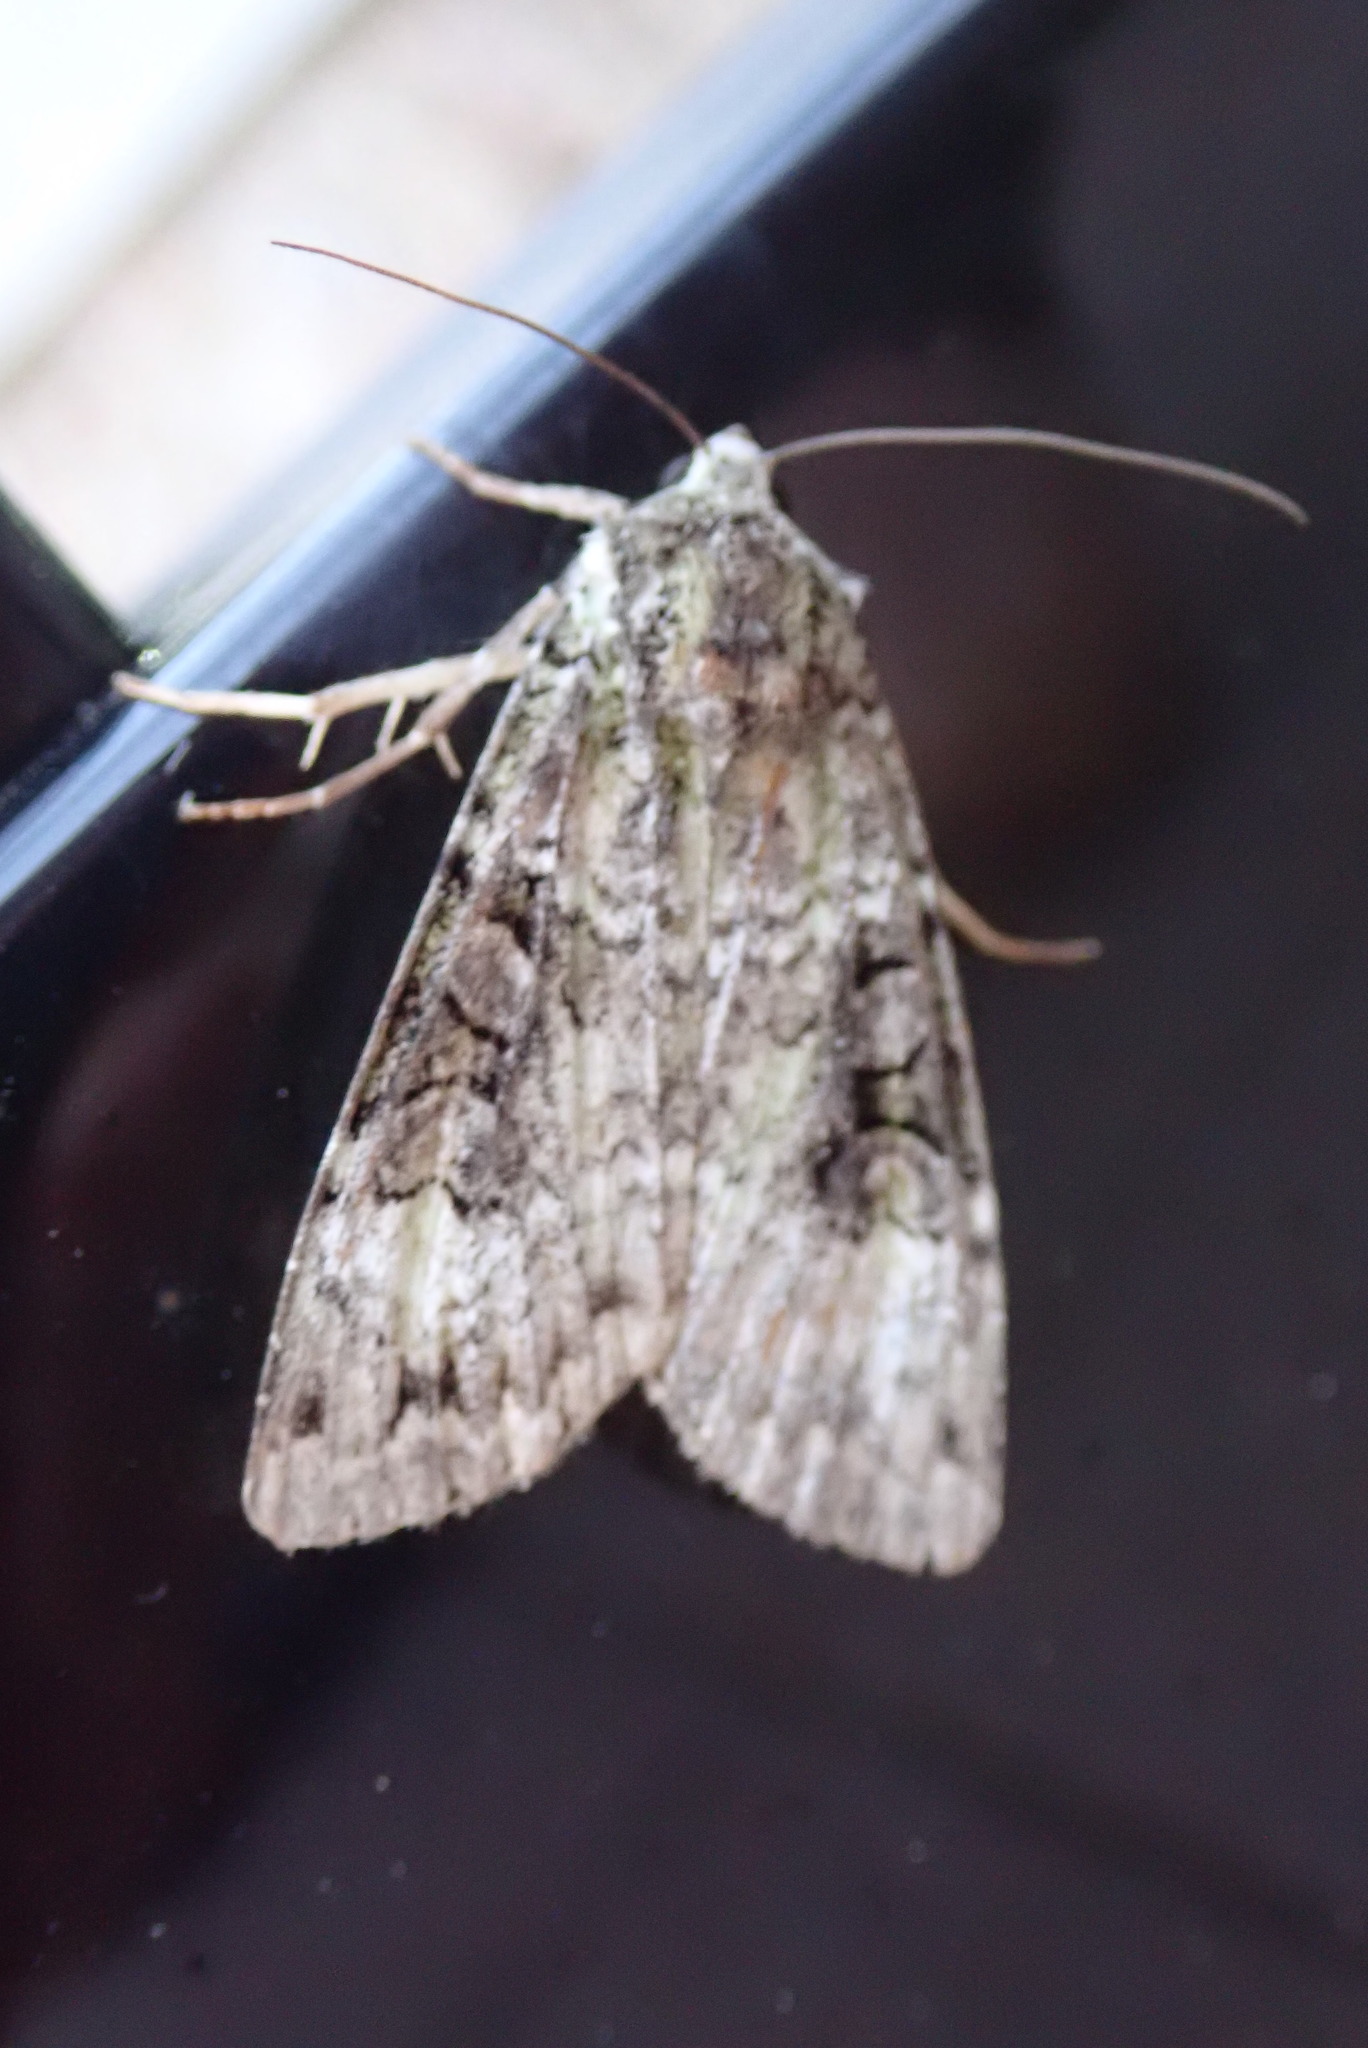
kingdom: Animalia
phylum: Arthropoda
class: Insecta
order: Lepidoptera
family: Noctuidae
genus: Anaplectoides
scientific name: Anaplectoides prasina
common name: Green arches
